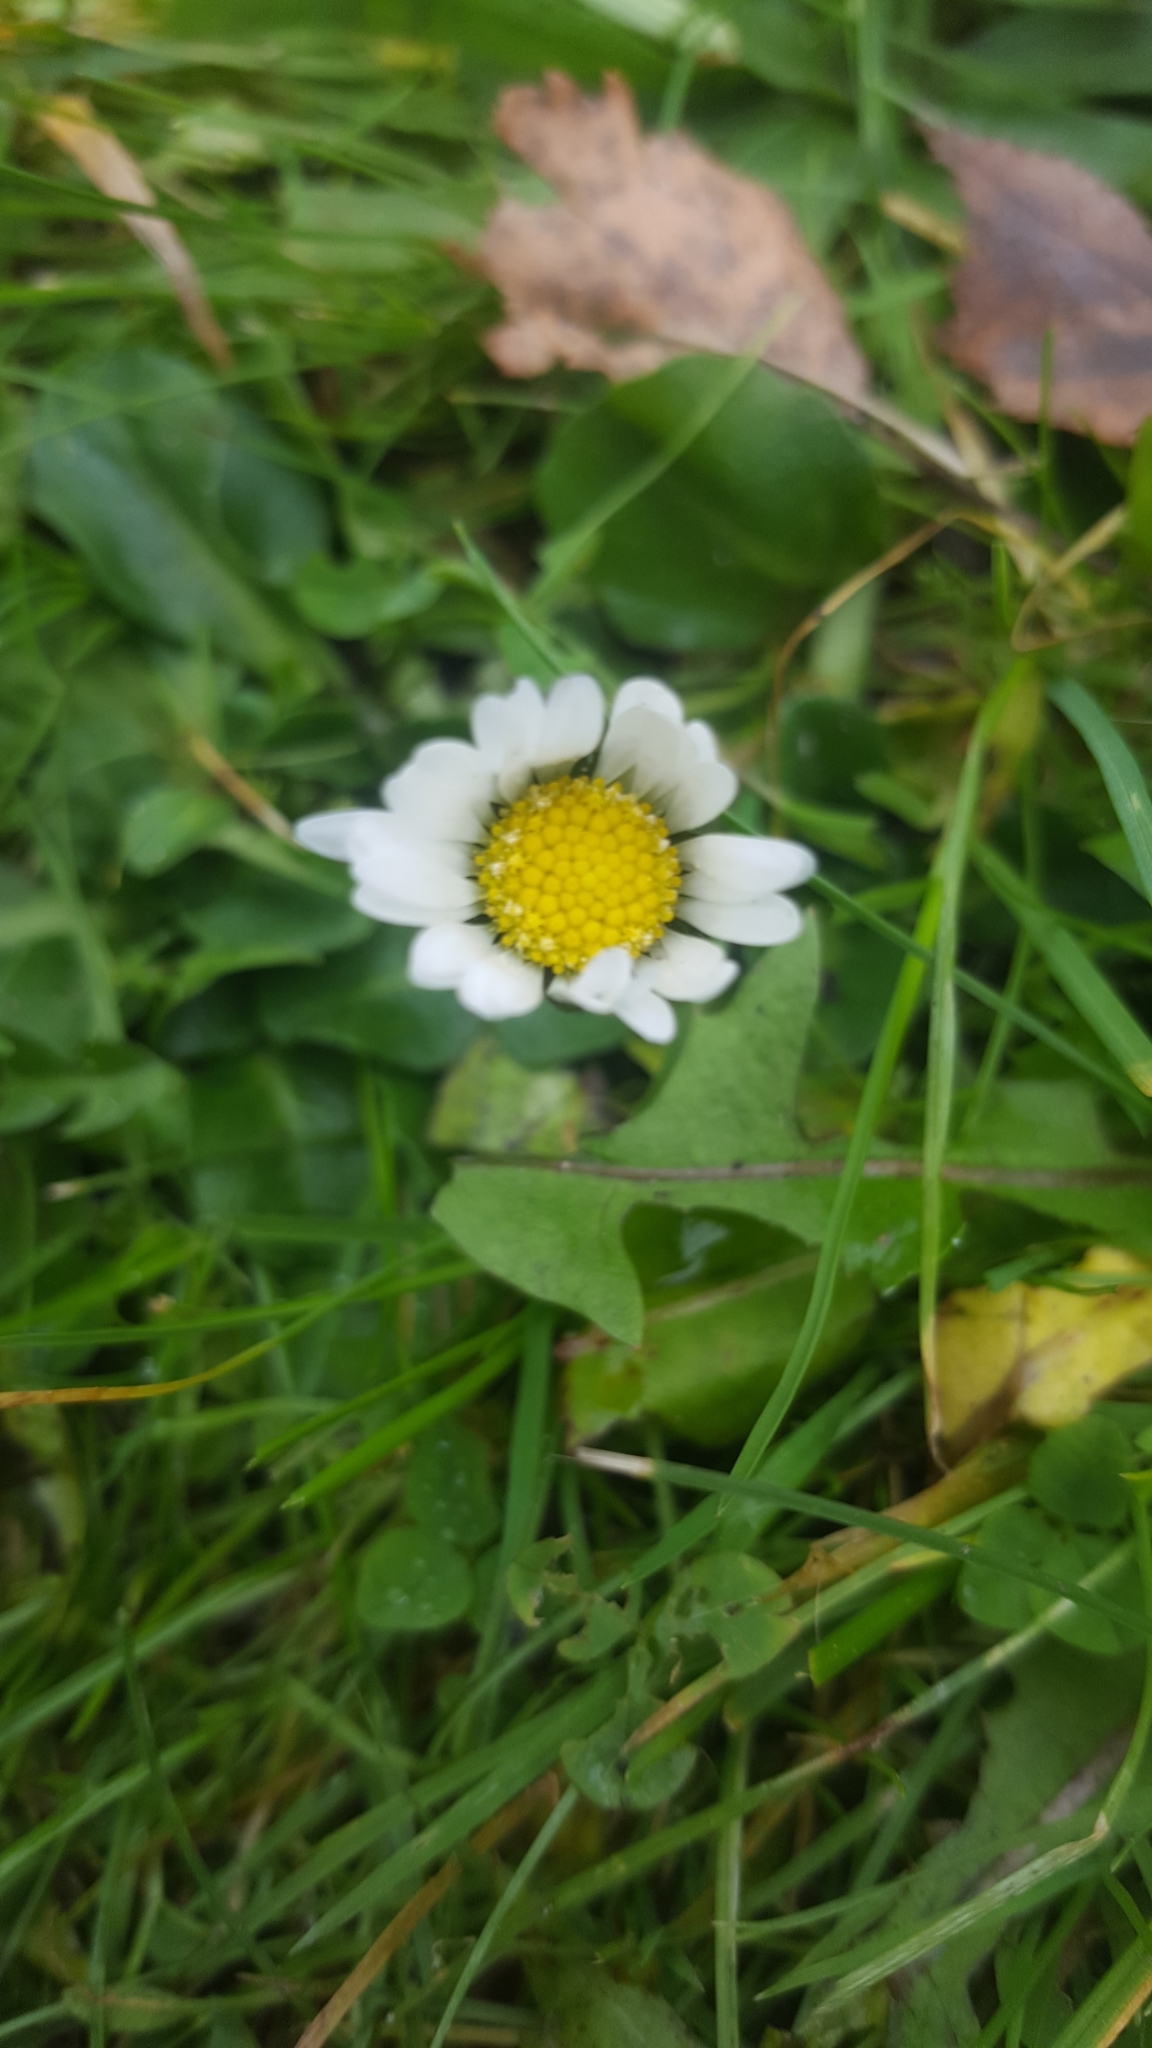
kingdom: Plantae
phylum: Tracheophyta
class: Magnoliopsida
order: Asterales
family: Asteraceae
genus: Bellis
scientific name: Bellis perennis
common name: Lawndaisy
